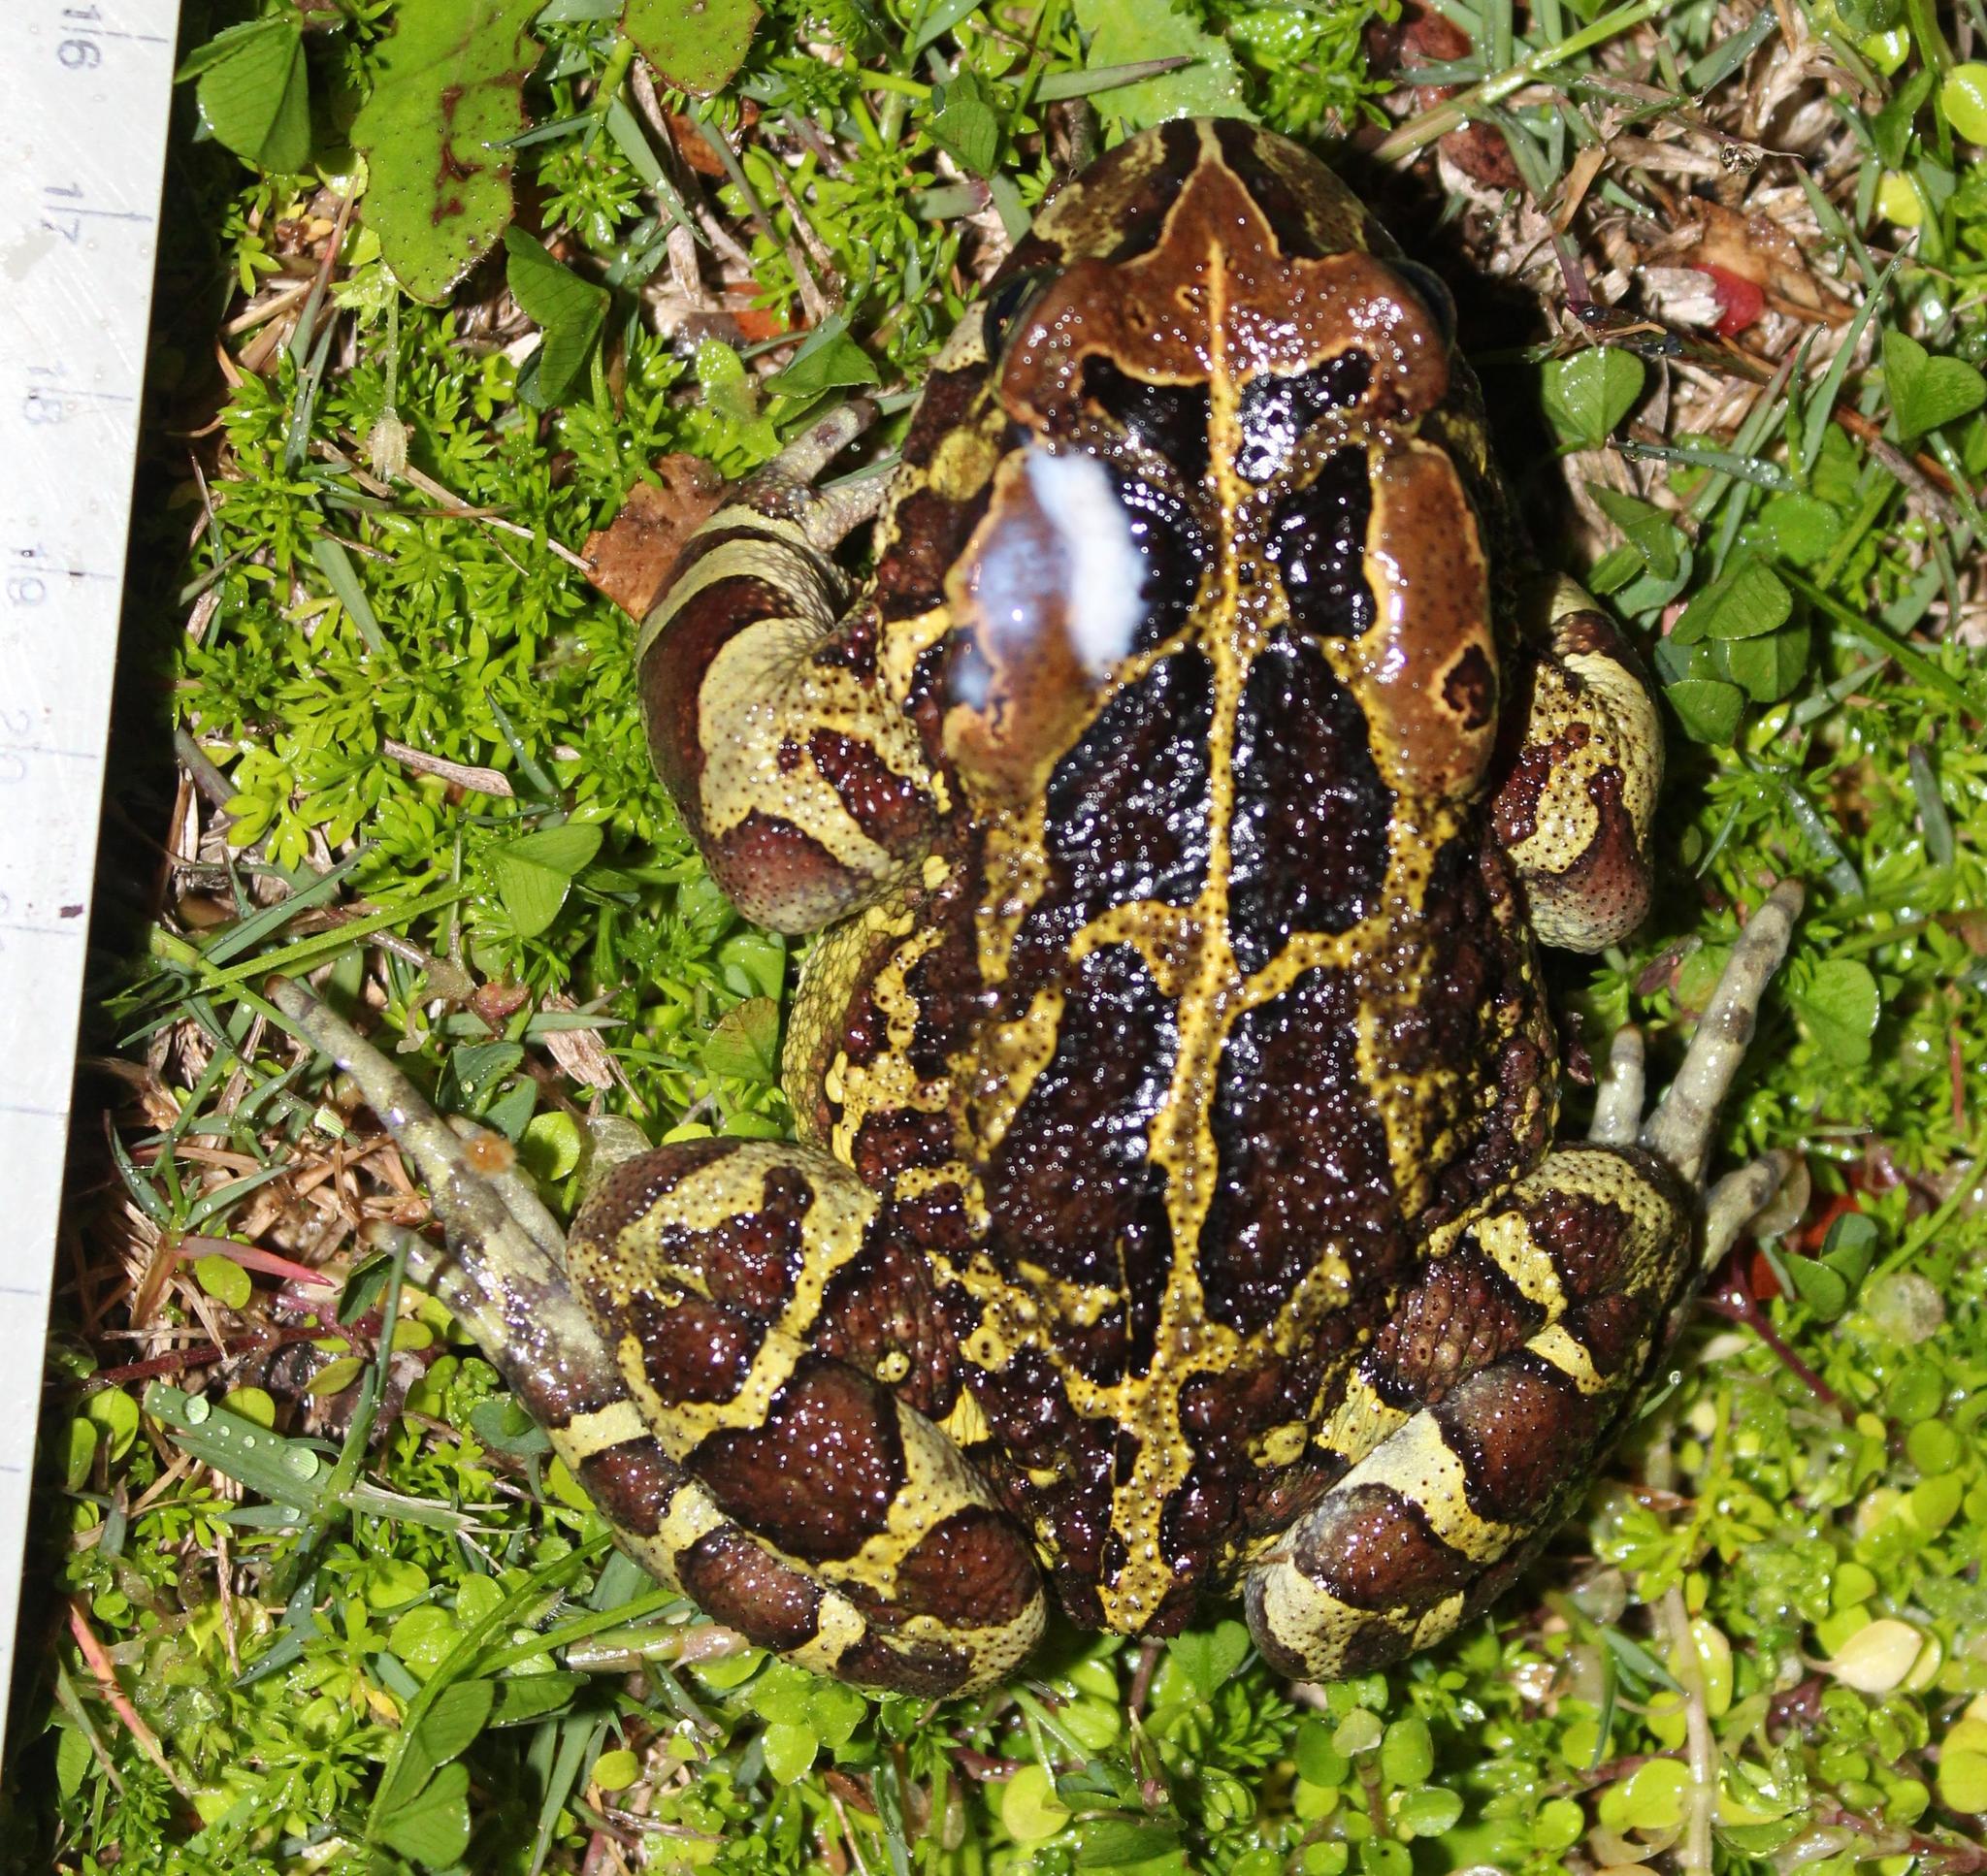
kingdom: Animalia
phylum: Chordata
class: Amphibia
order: Anura
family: Bufonidae
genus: Sclerophrys
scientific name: Sclerophrys pantherina
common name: Panther toad
